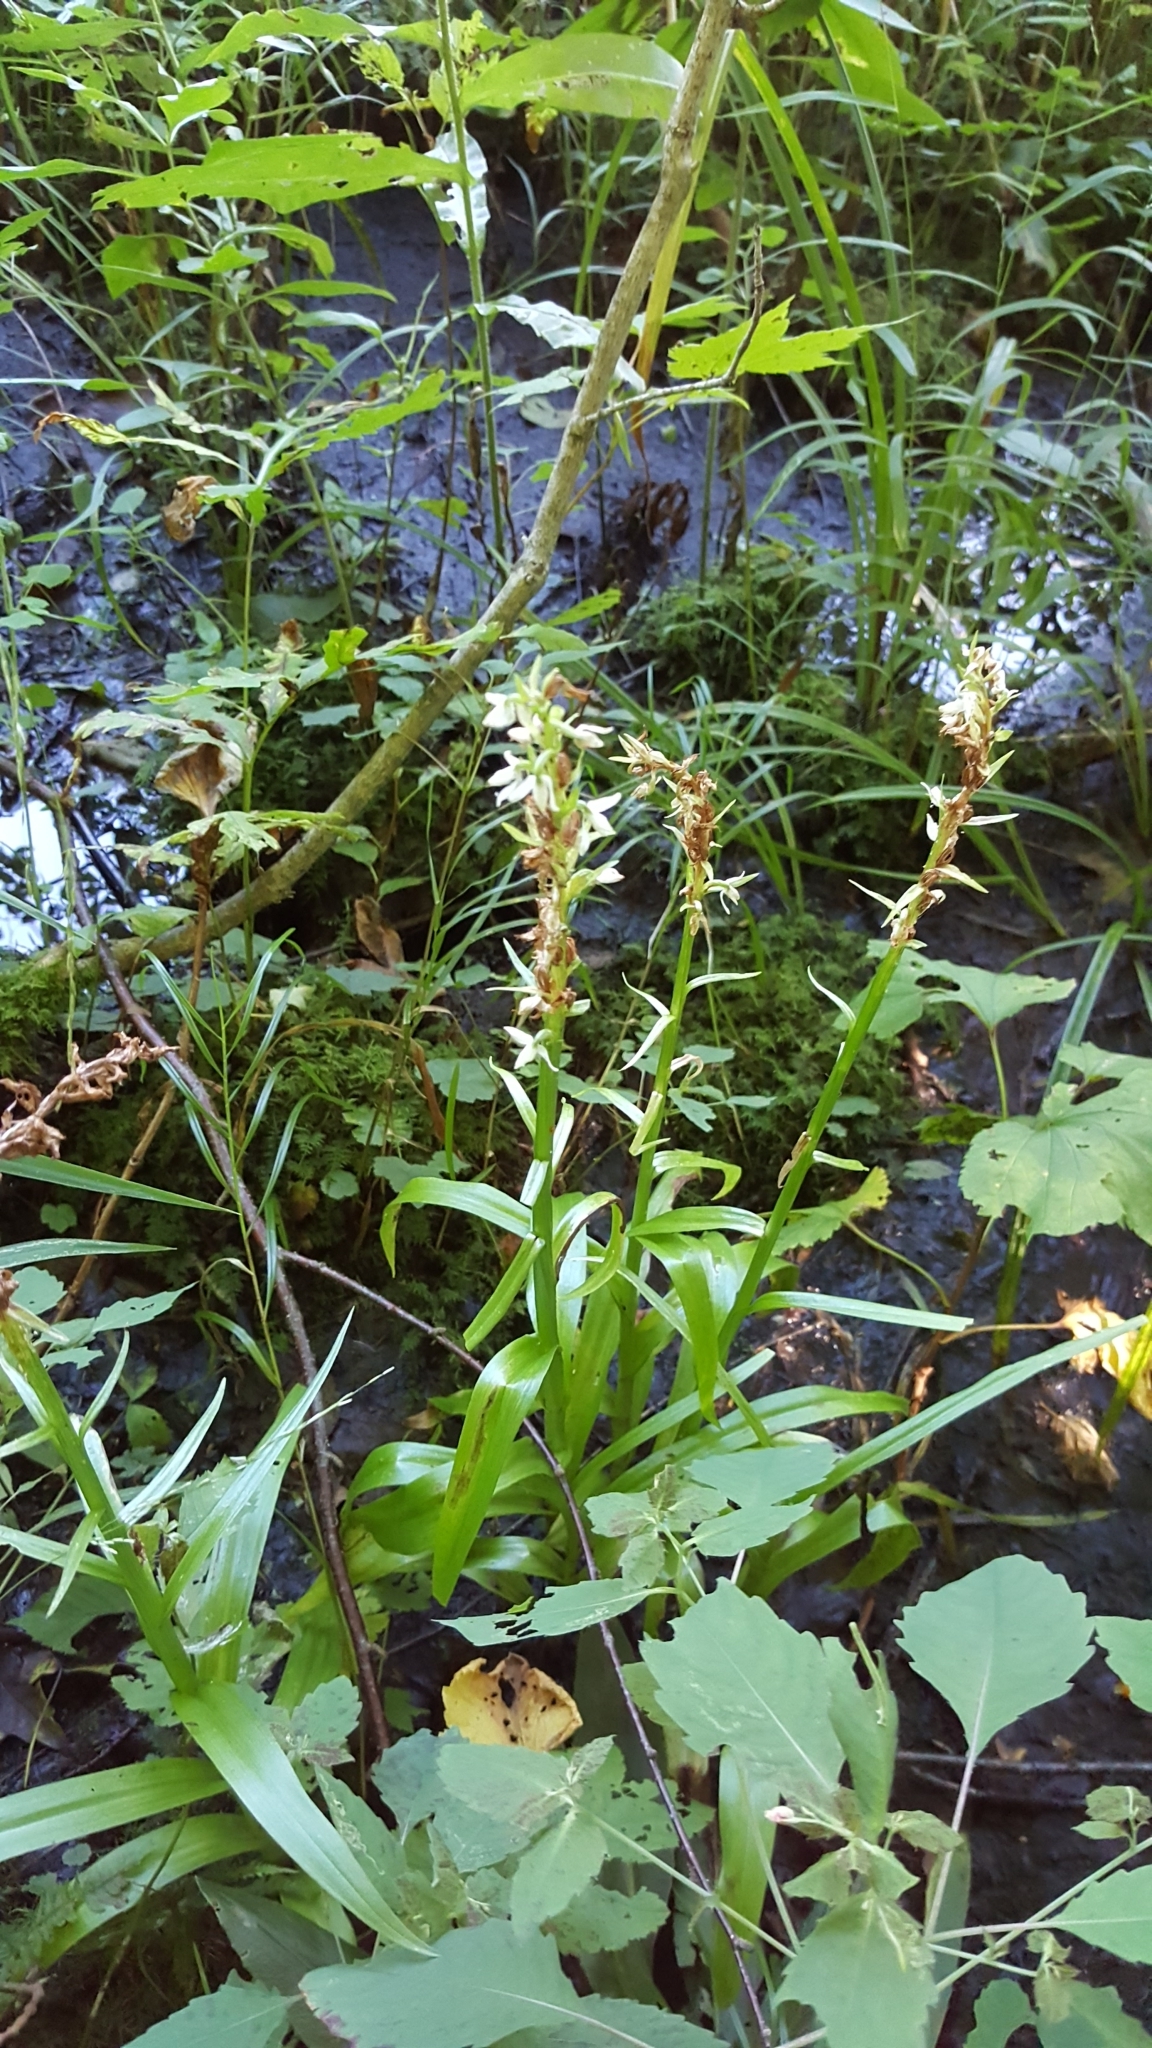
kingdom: Plantae
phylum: Tracheophyta
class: Liliopsida
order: Asparagales
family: Orchidaceae
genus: Platanthera
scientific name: Platanthera dilatata
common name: Bog candles
